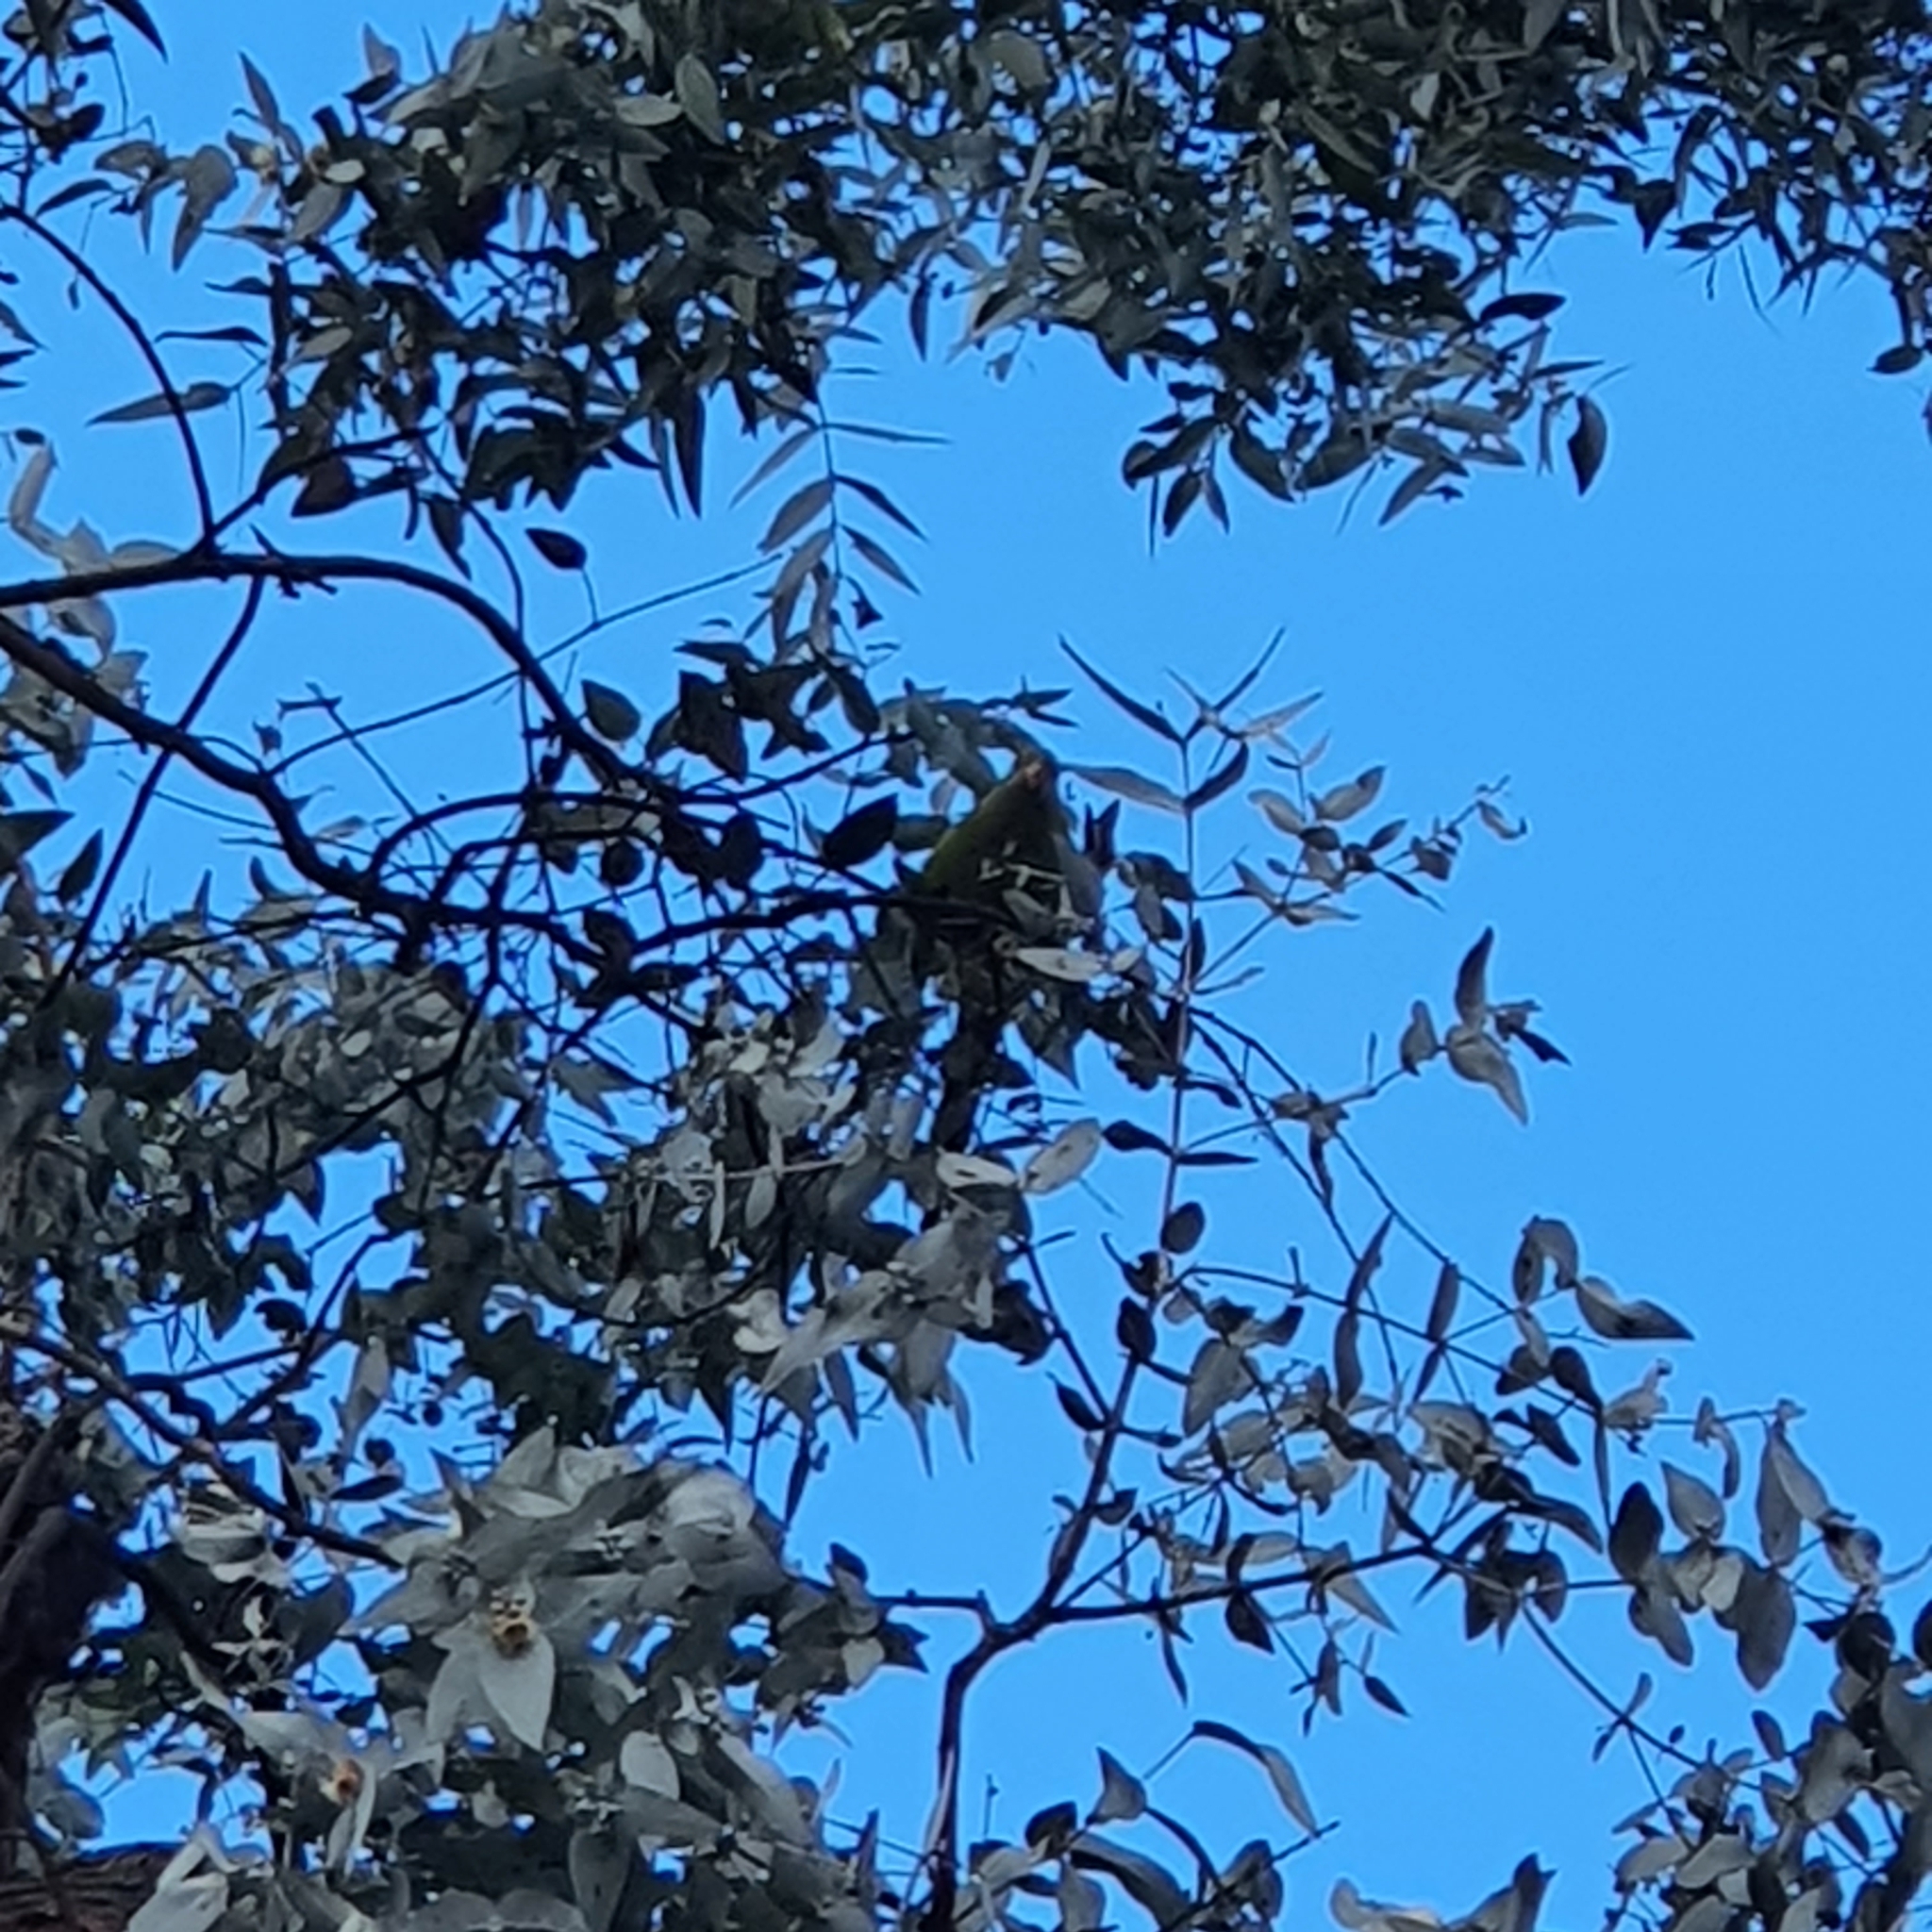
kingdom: Animalia
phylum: Chordata
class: Aves
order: Psittaciformes
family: Psittacidae
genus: Polytelis
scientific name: Polytelis swainsonii
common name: Superb parrot
